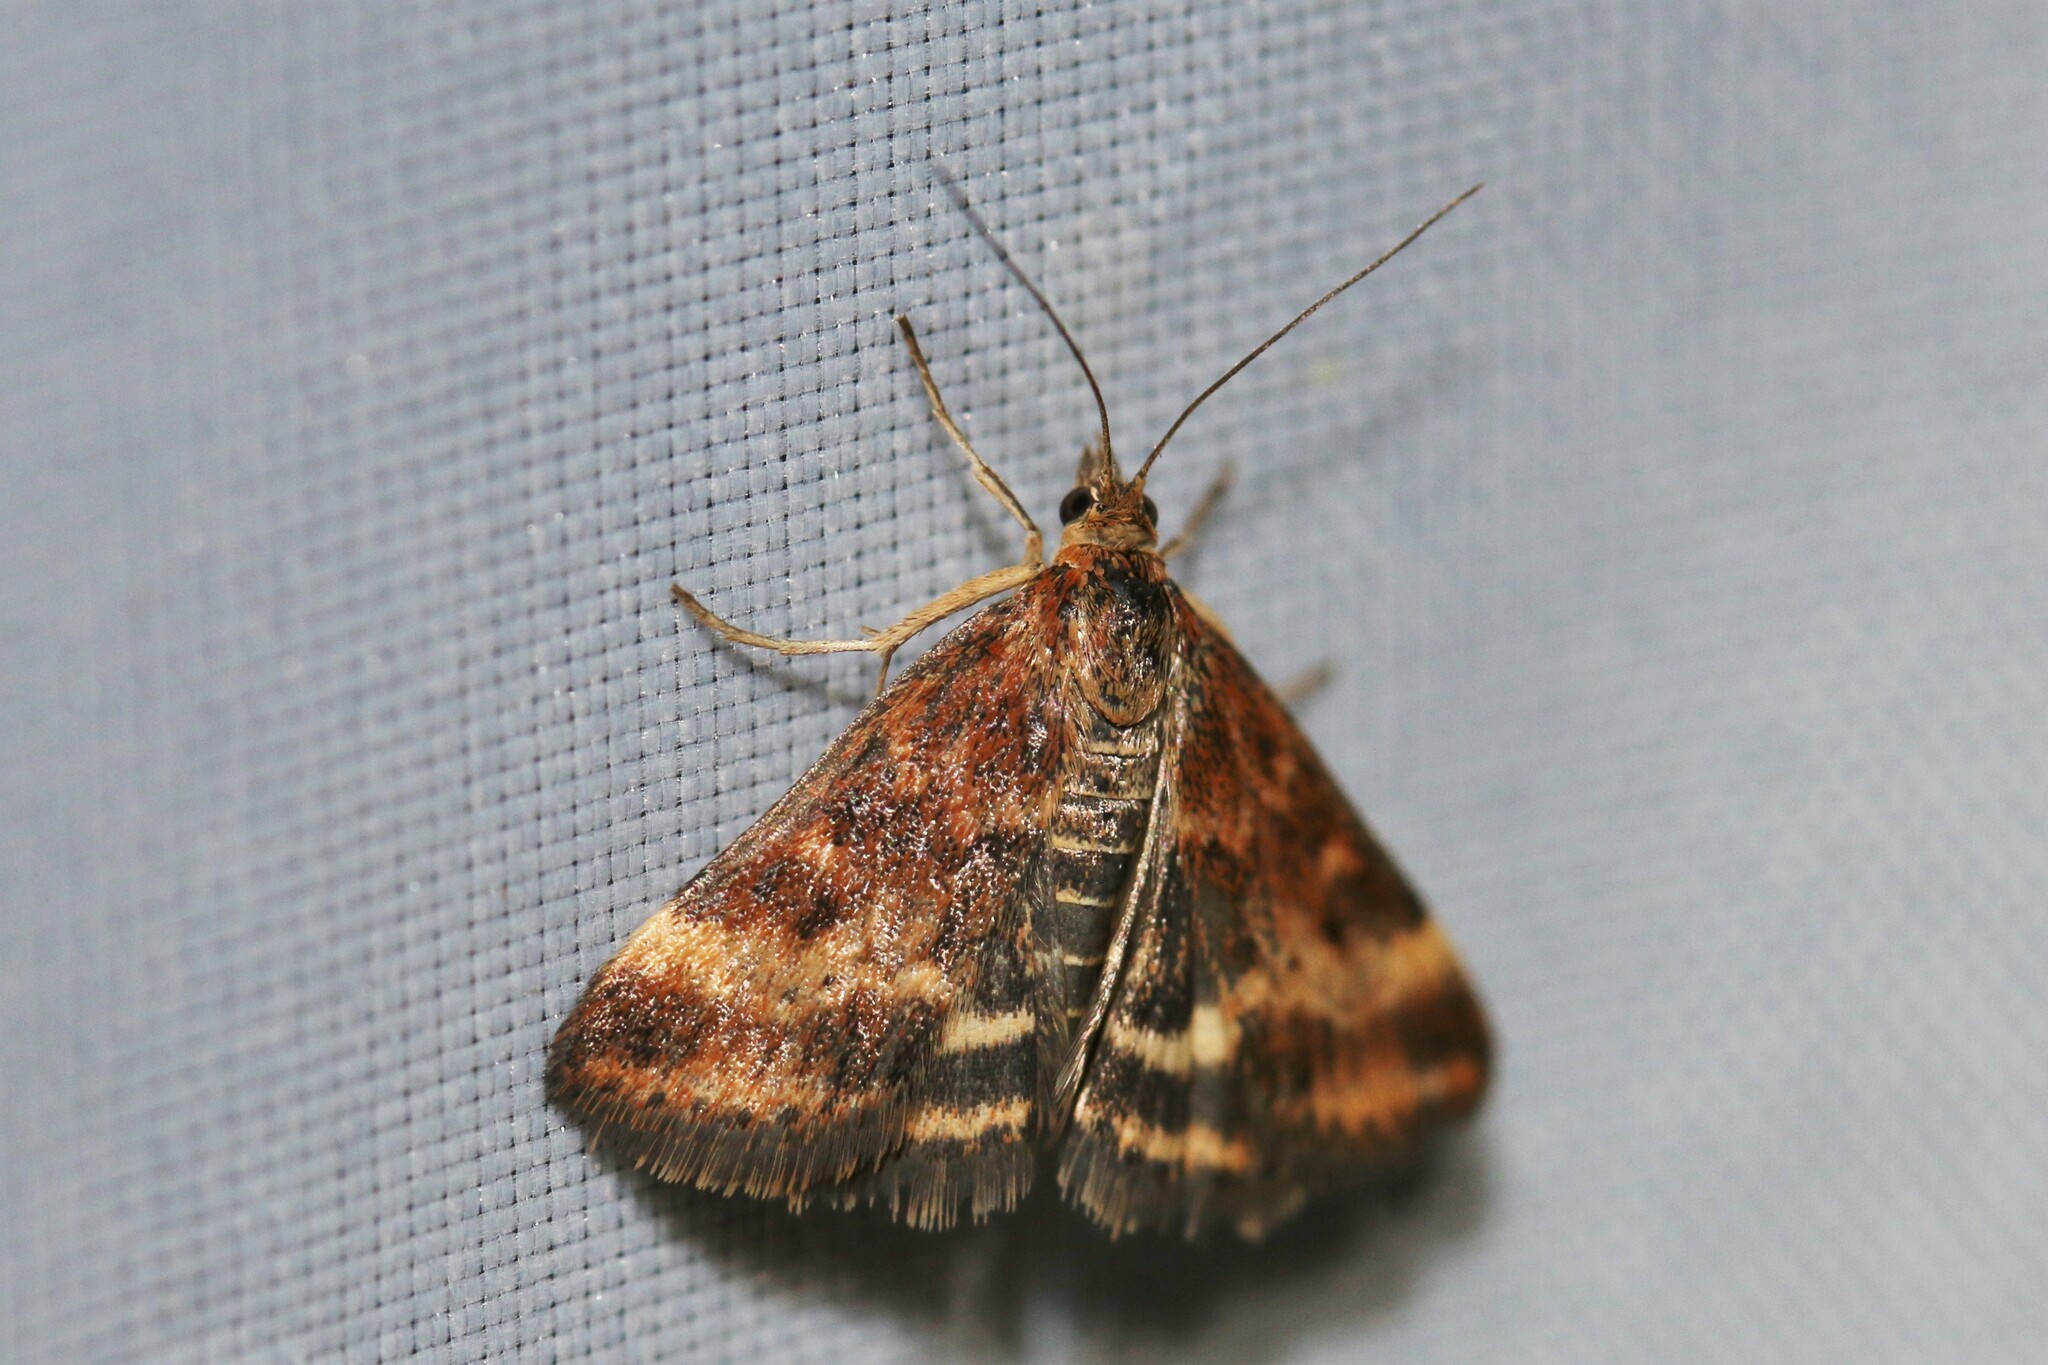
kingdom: Animalia
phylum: Arthropoda
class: Insecta
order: Lepidoptera
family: Crambidae
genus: Pyrausta
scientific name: Pyrausta despicata
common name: Straw-barred pearl
